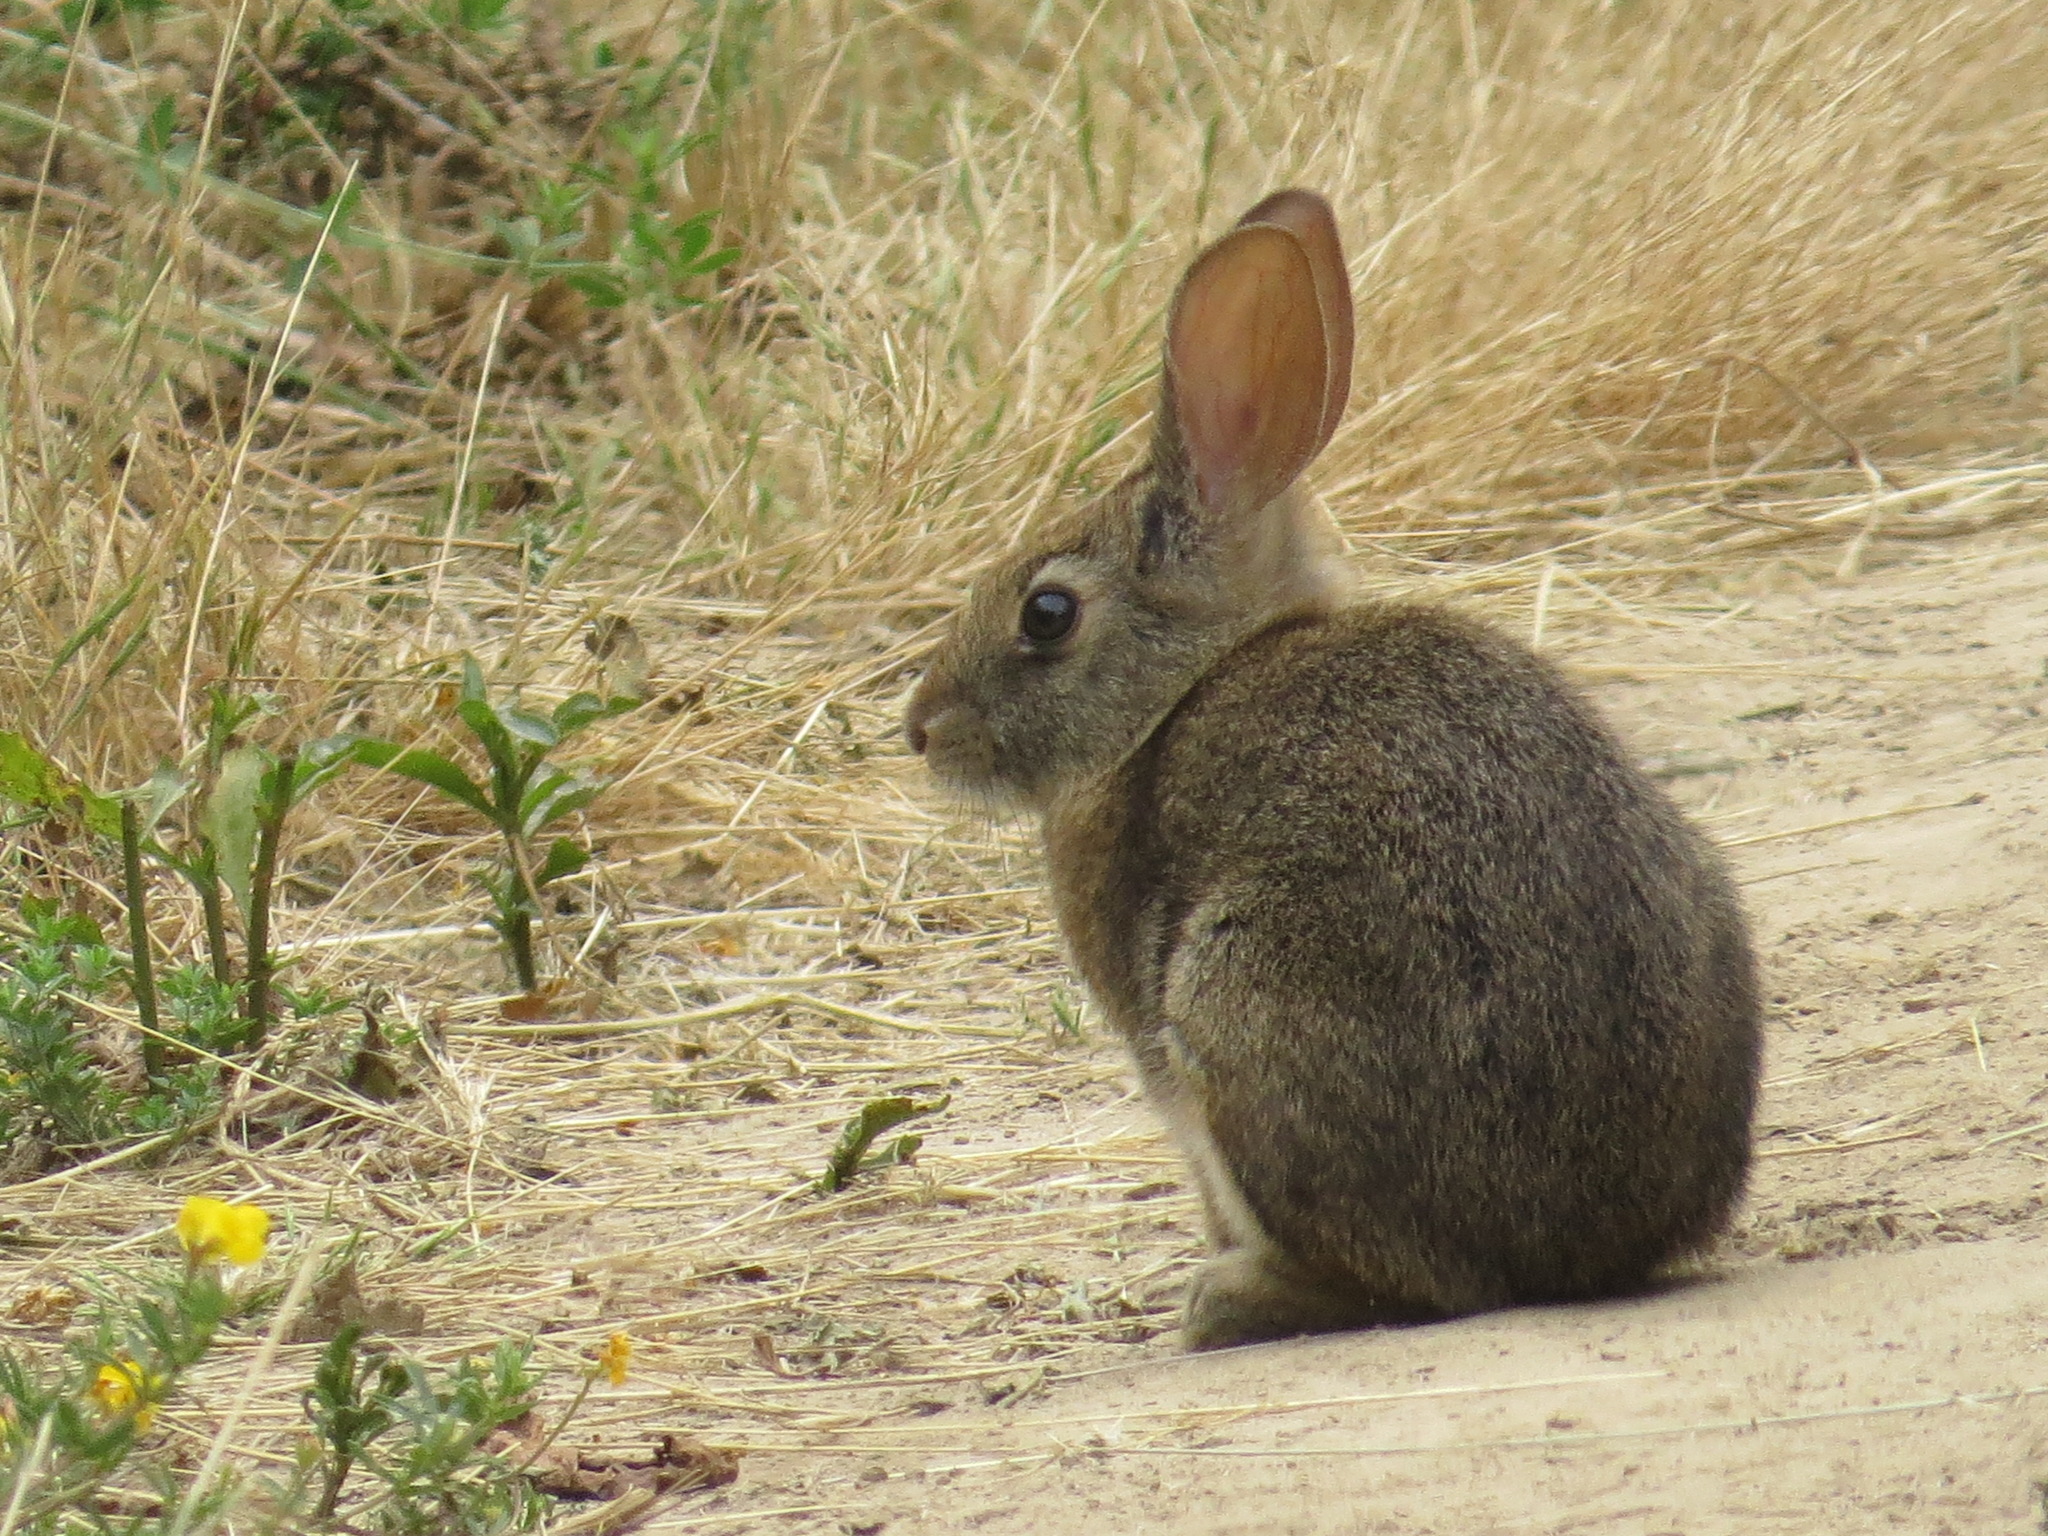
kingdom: Animalia
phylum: Chordata
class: Mammalia
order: Lagomorpha
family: Leporidae
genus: Sylvilagus
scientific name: Sylvilagus bachmani
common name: Brush rabbit
